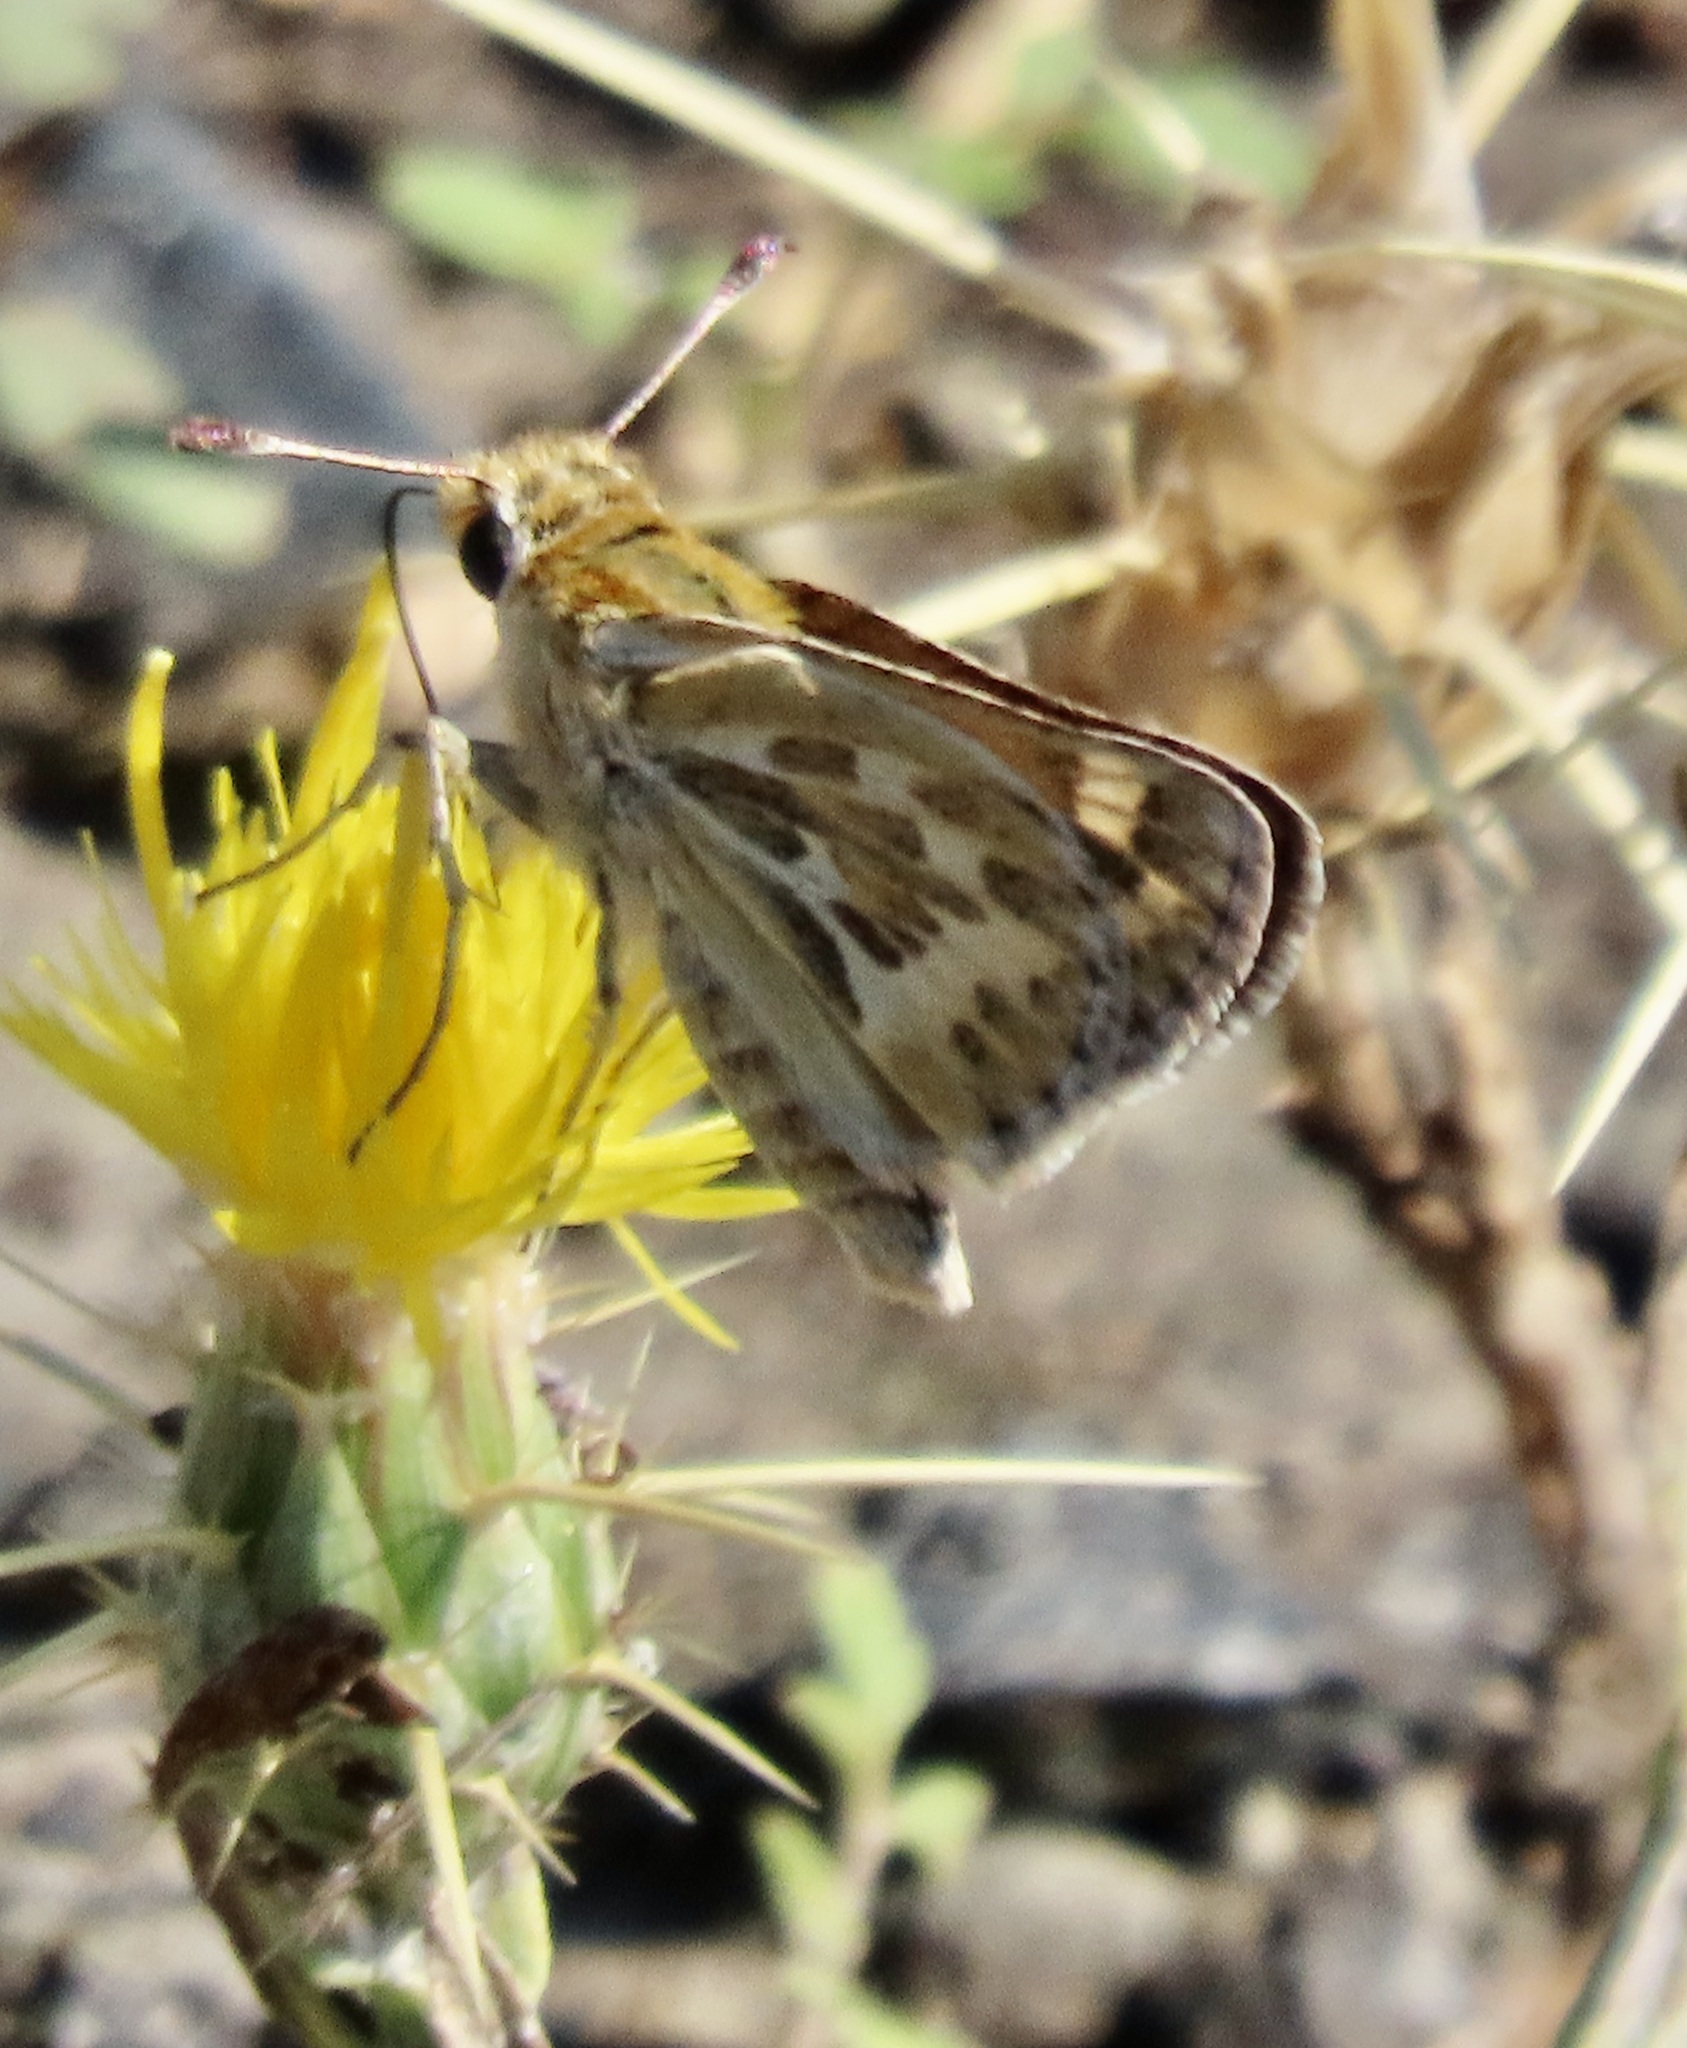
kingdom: Animalia
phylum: Arthropoda
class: Insecta
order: Lepidoptera
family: Hesperiidae
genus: Polites
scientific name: Polites sabuleti
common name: Sandhill skipper
